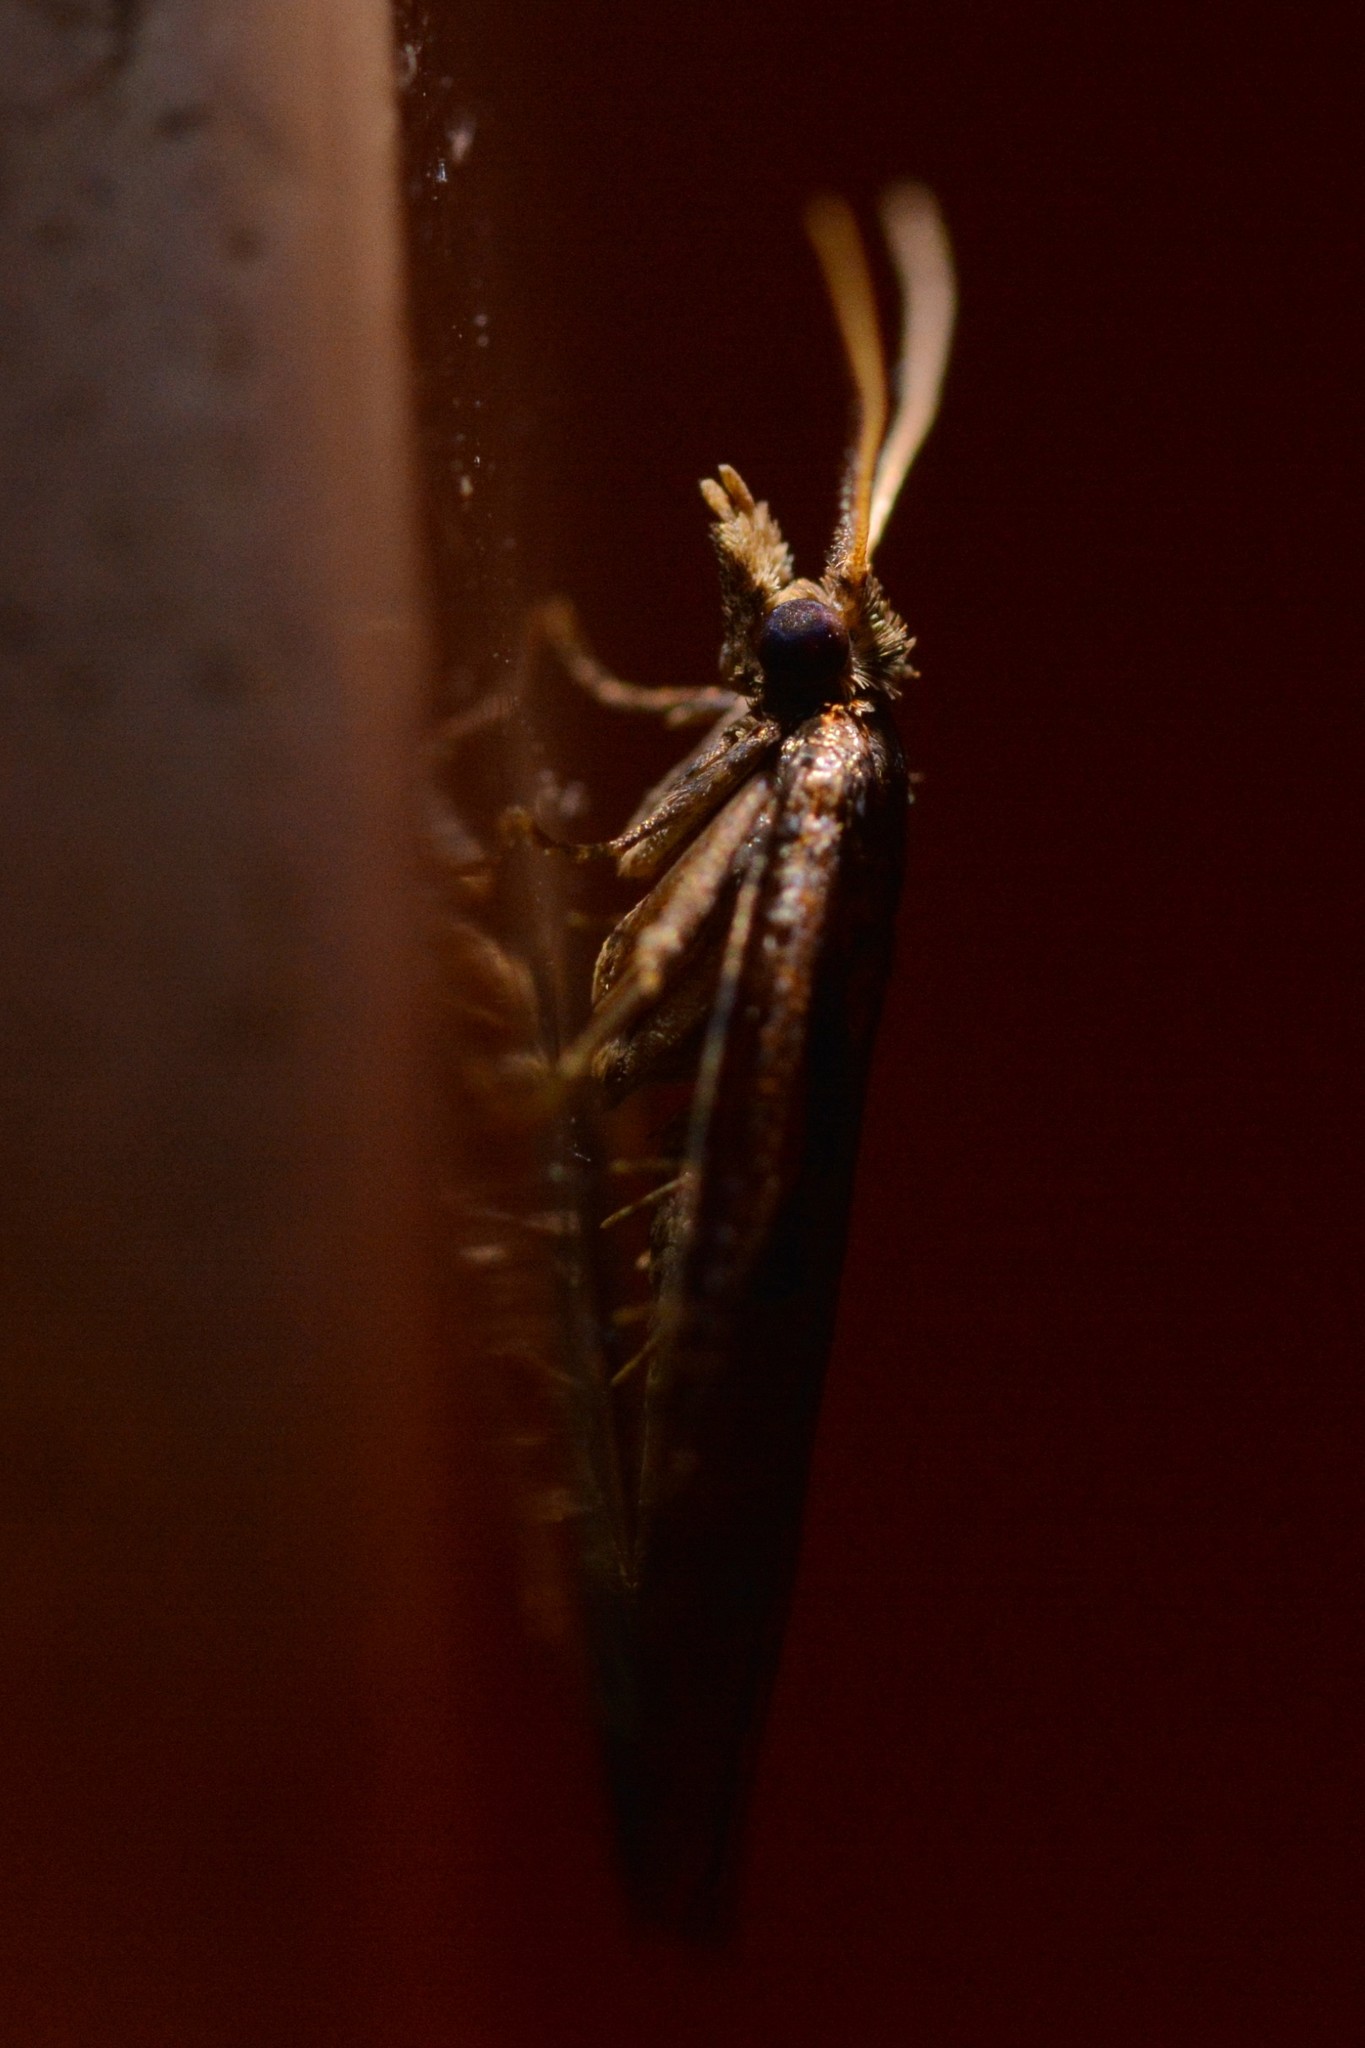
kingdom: Animalia
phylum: Arthropoda
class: Insecta
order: Lepidoptera
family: Tortricidae
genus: Cnephasia
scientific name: Cnephasia jactatana
